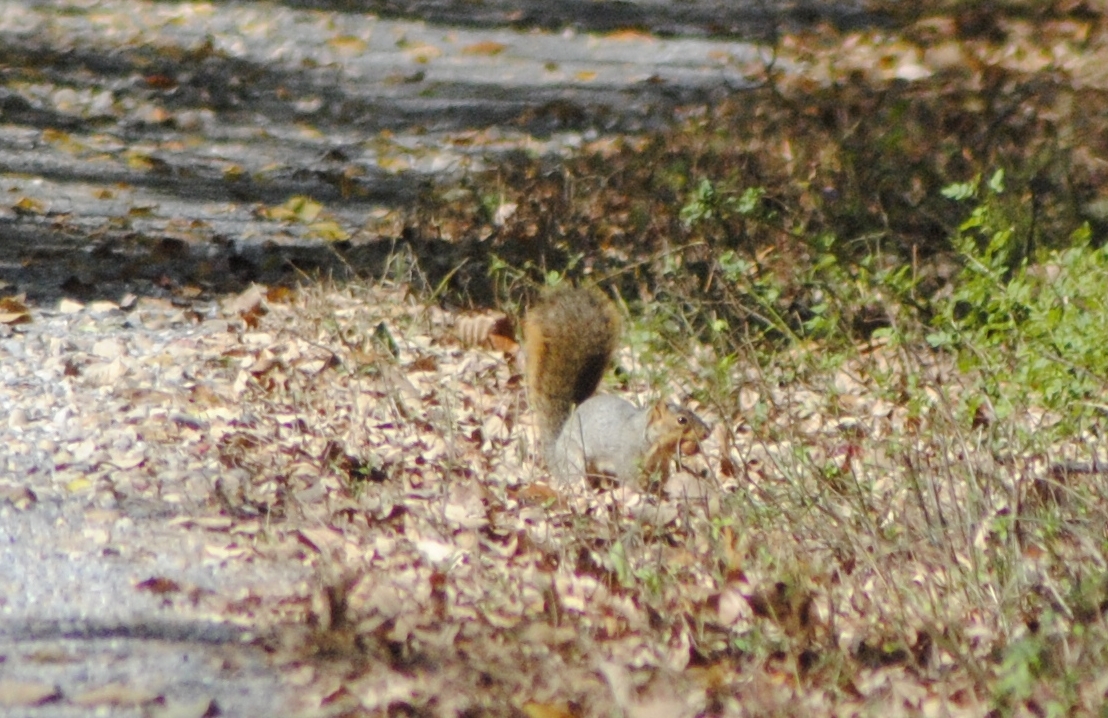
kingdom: Animalia
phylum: Chordata
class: Mammalia
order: Rodentia
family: Sciuridae
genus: Sciurus
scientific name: Sciurus niger
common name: Fox squirrel
